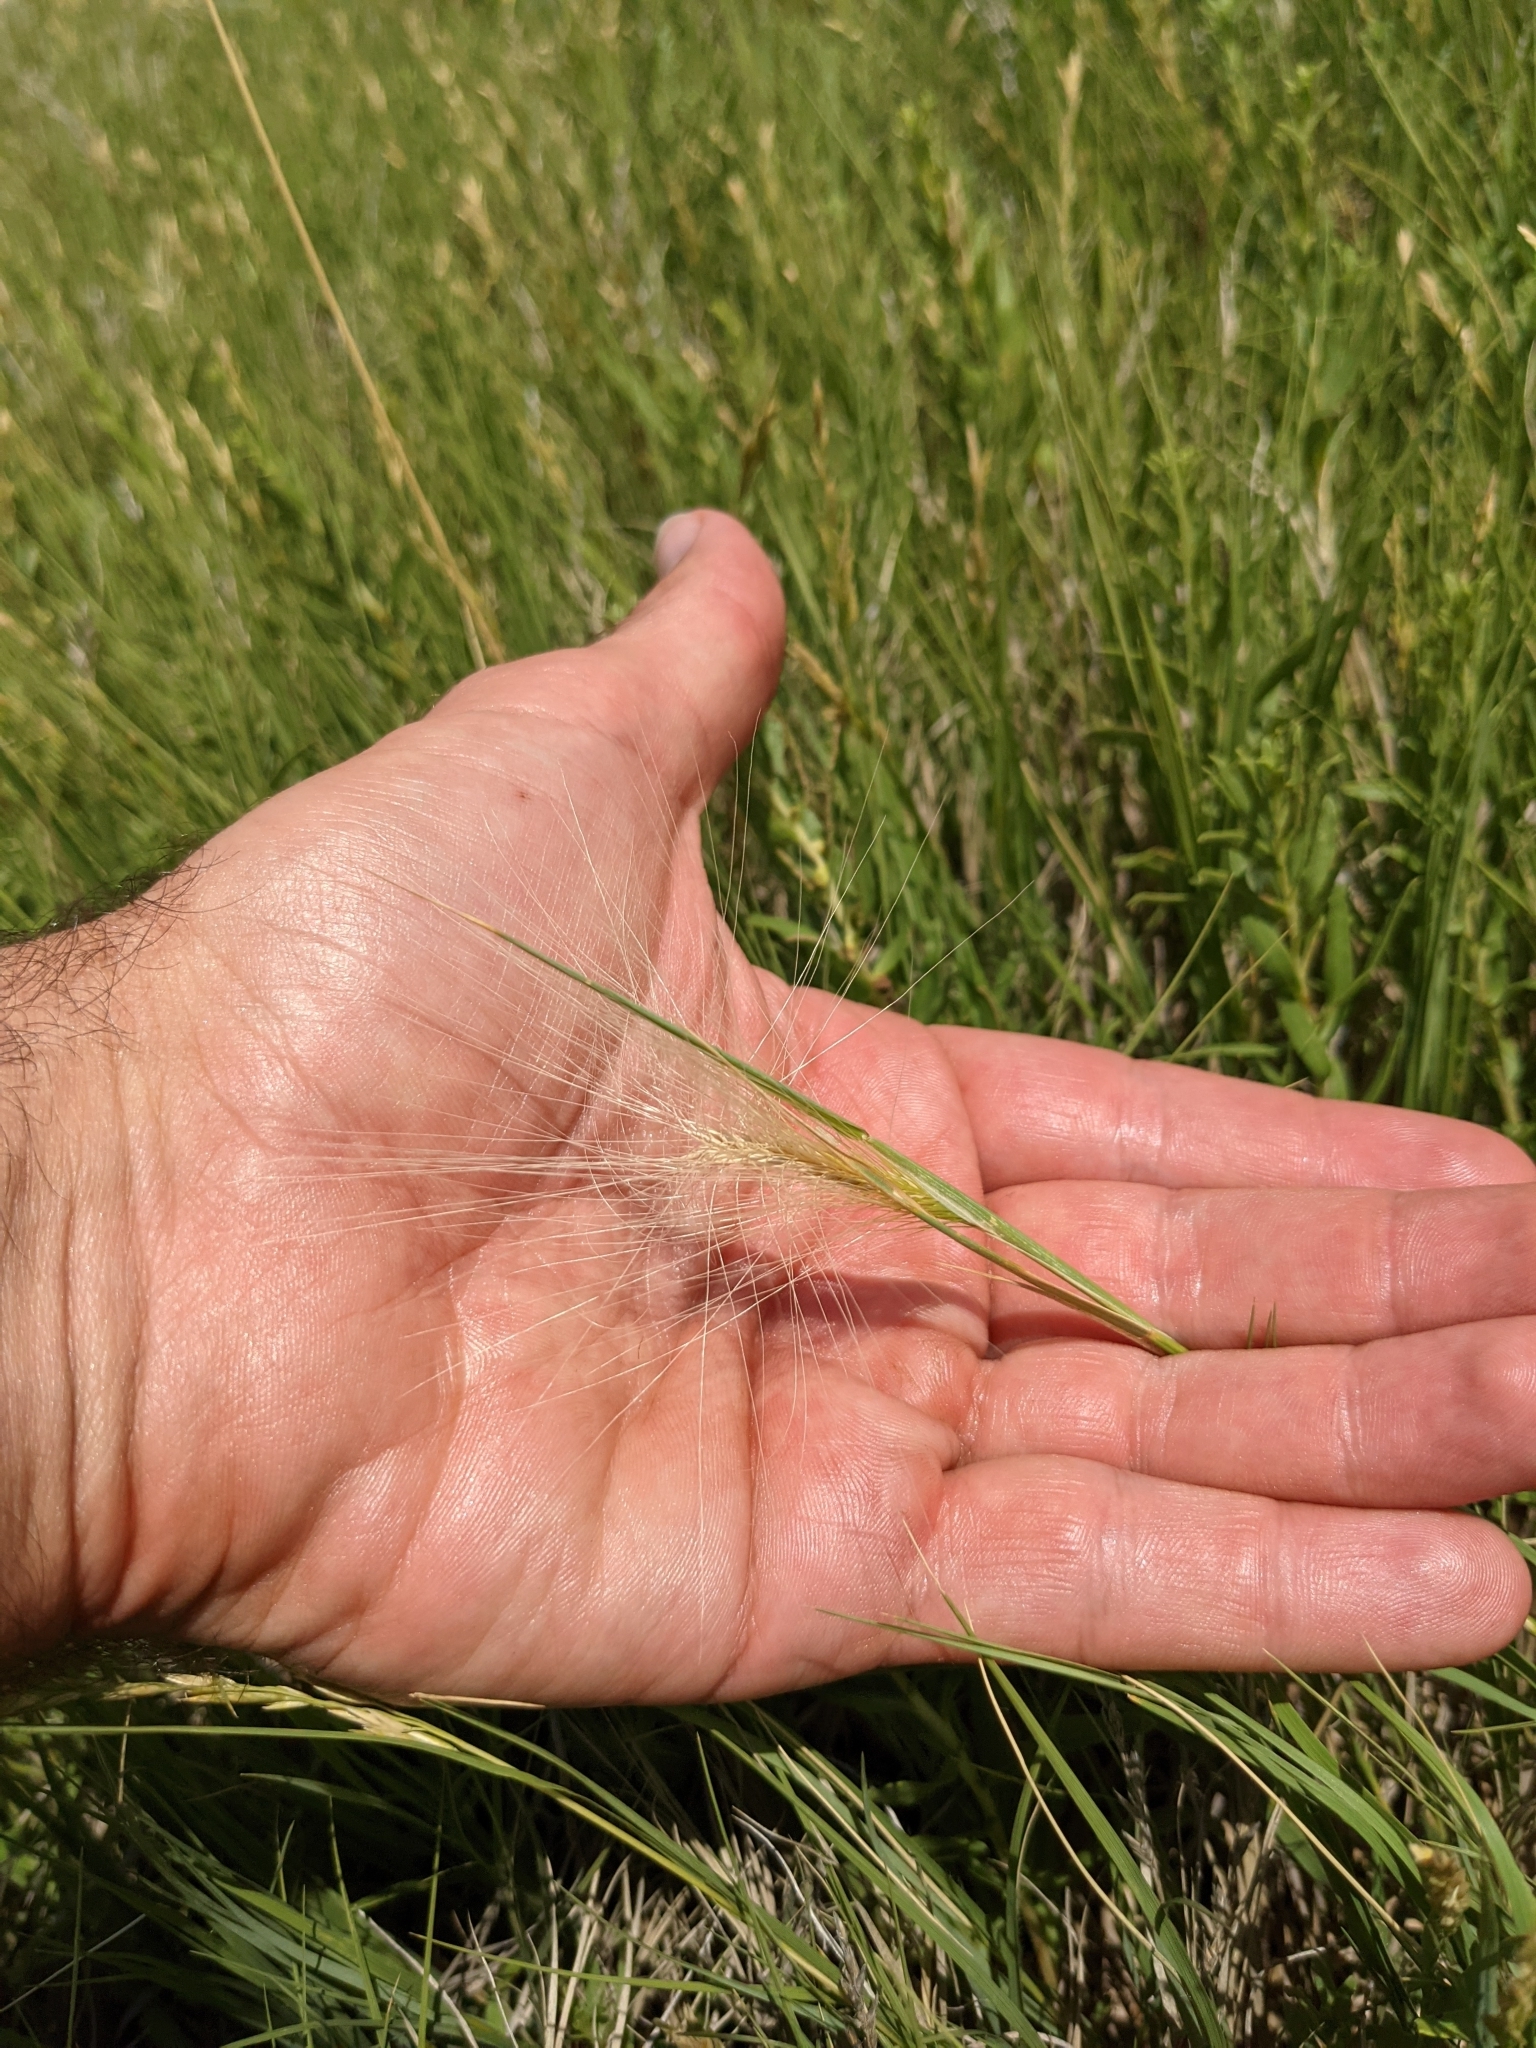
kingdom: Plantae
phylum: Tracheophyta
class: Liliopsida
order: Poales
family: Poaceae
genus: Hordeum
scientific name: Hordeum jubatum
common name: Foxtail barley
